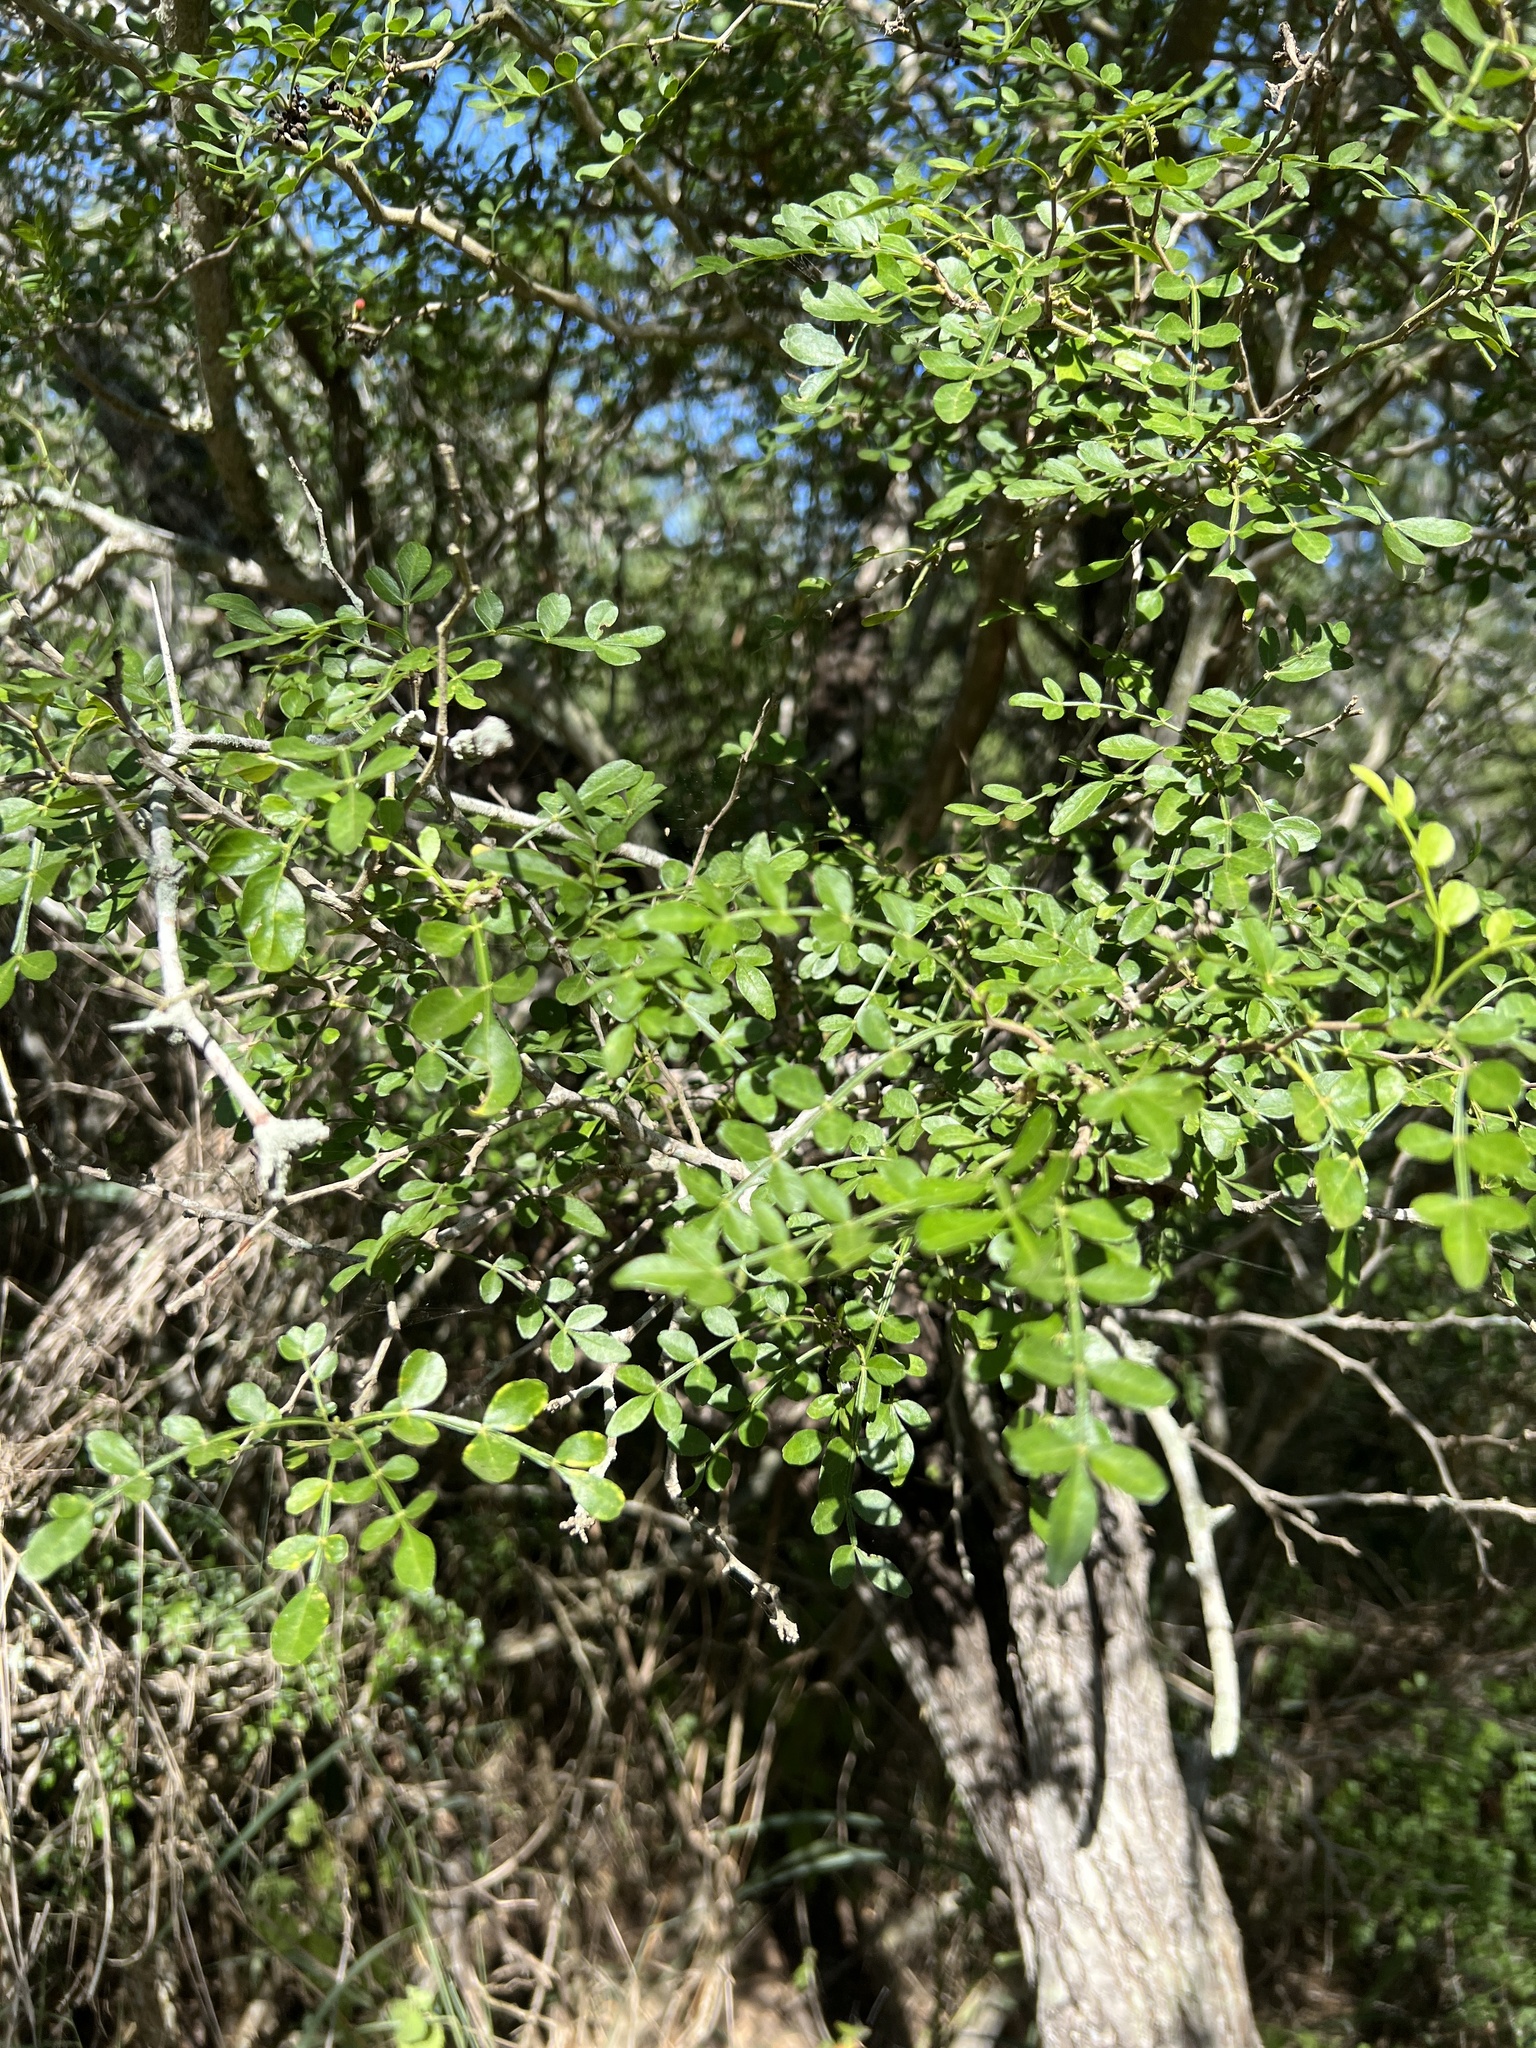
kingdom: Plantae
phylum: Tracheophyta
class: Magnoliopsida
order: Sapindales
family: Rutaceae
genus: Zanthoxylum
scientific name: Zanthoxylum fagara
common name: Lime prickly-ash
